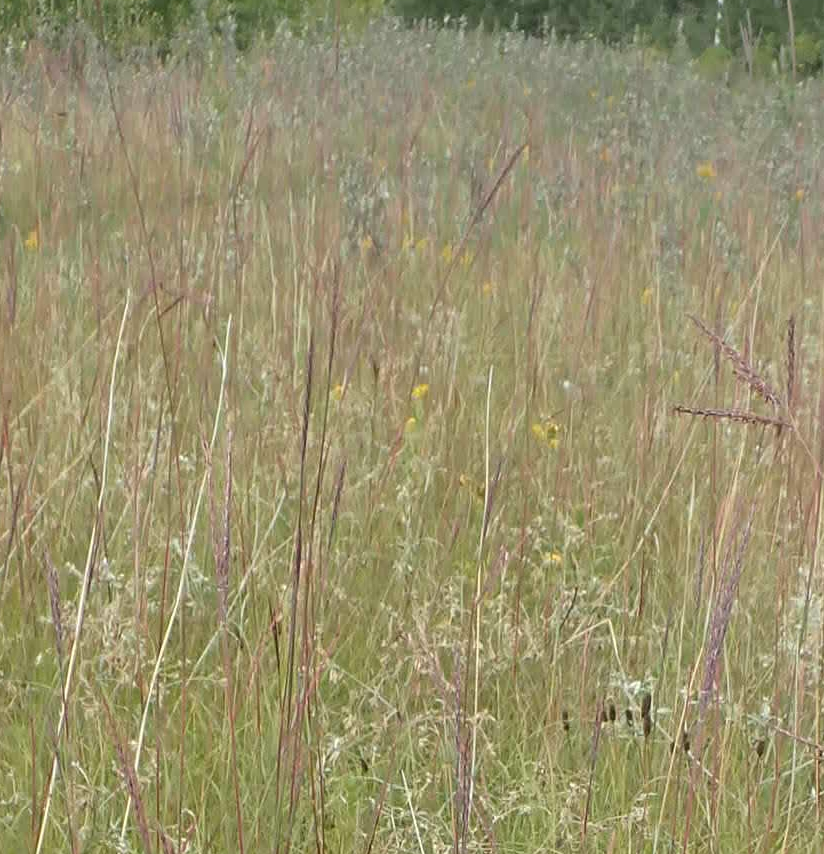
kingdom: Plantae
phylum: Tracheophyta
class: Liliopsida
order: Poales
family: Poaceae
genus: Andropogon
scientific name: Andropogon gerardi
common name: Big bluestem
